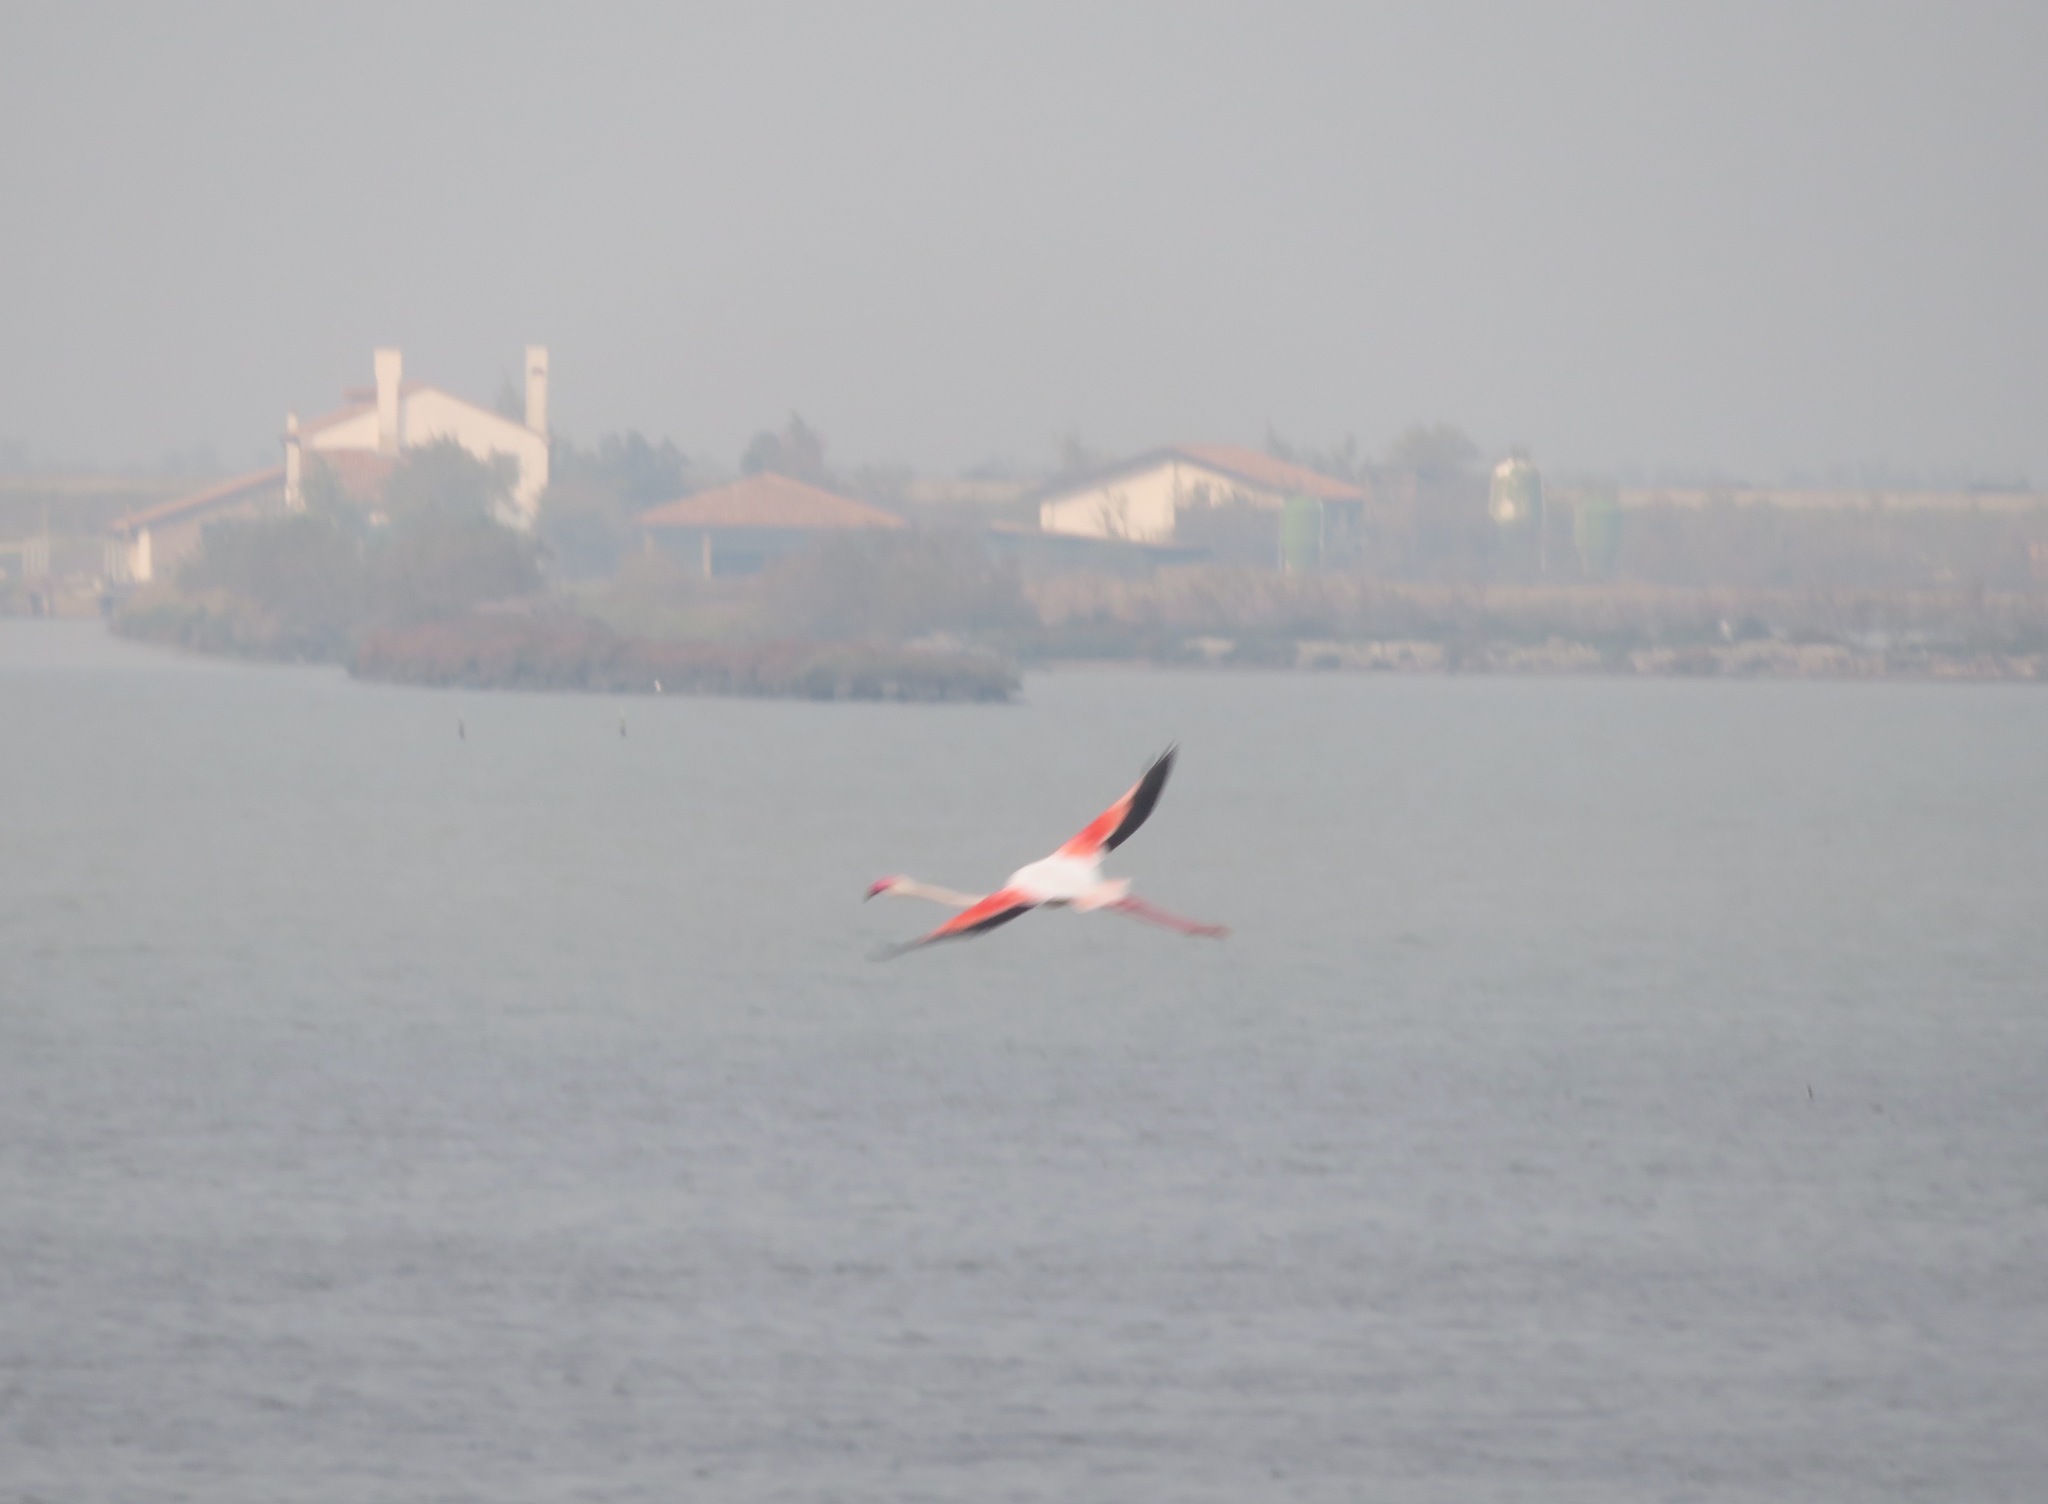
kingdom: Animalia
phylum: Chordata
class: Aves
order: Phoenicopteriformes
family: Phoenicopteridae
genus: Phoenicopterus
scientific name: Phoenicopterus roseus
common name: Greater flamingo
